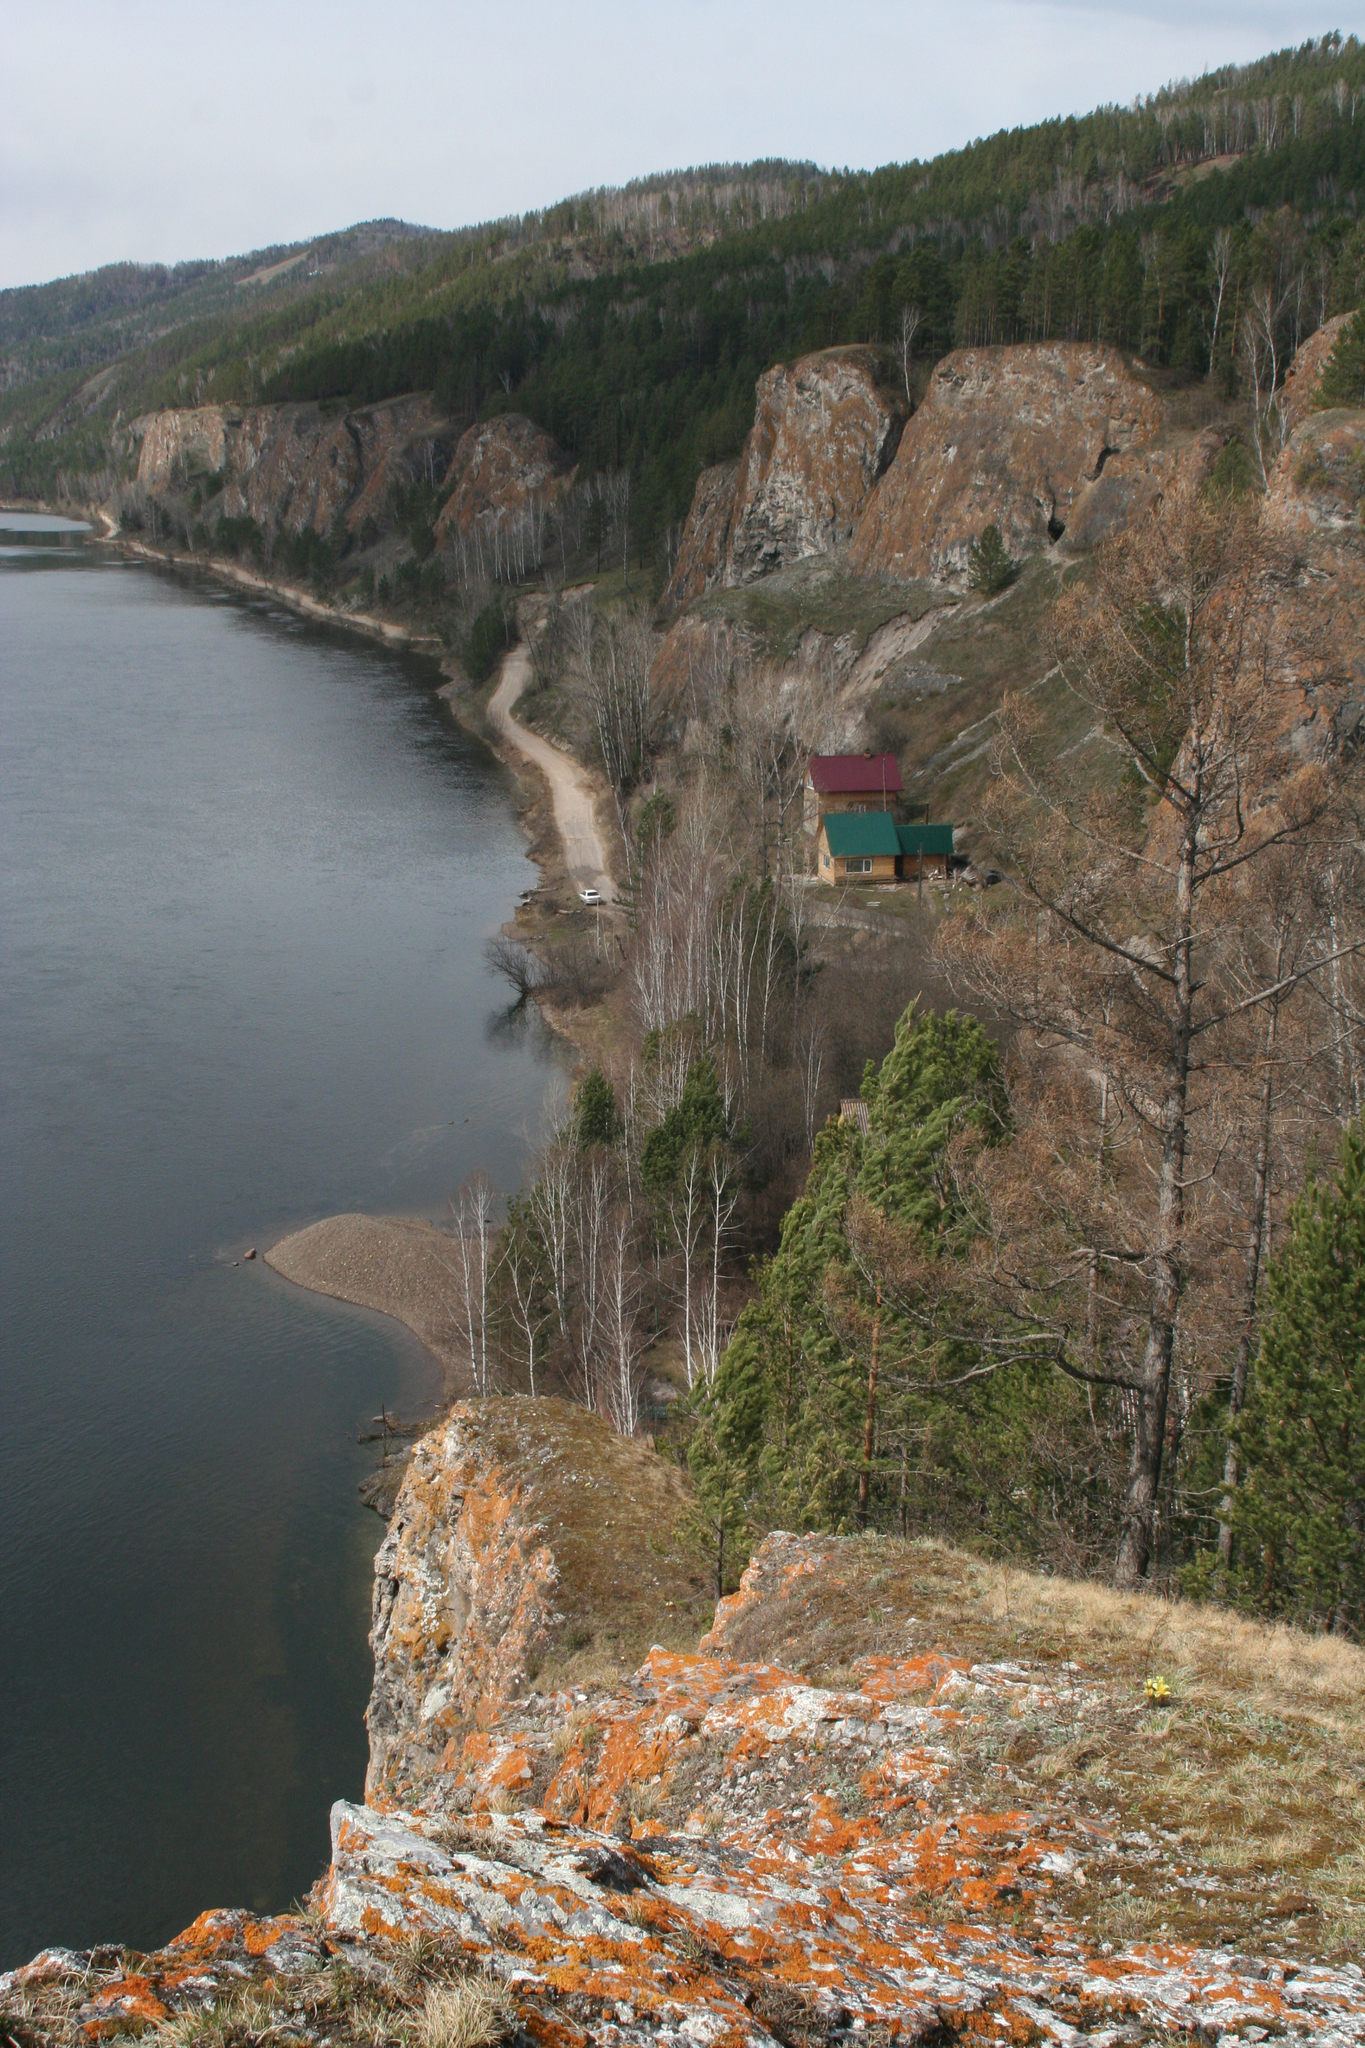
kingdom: Plantae
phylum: Tracheophyta
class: Pinopsida
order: Pinales
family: Pinaceae
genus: Larix
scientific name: Larix sibirica
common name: Siberian larch
